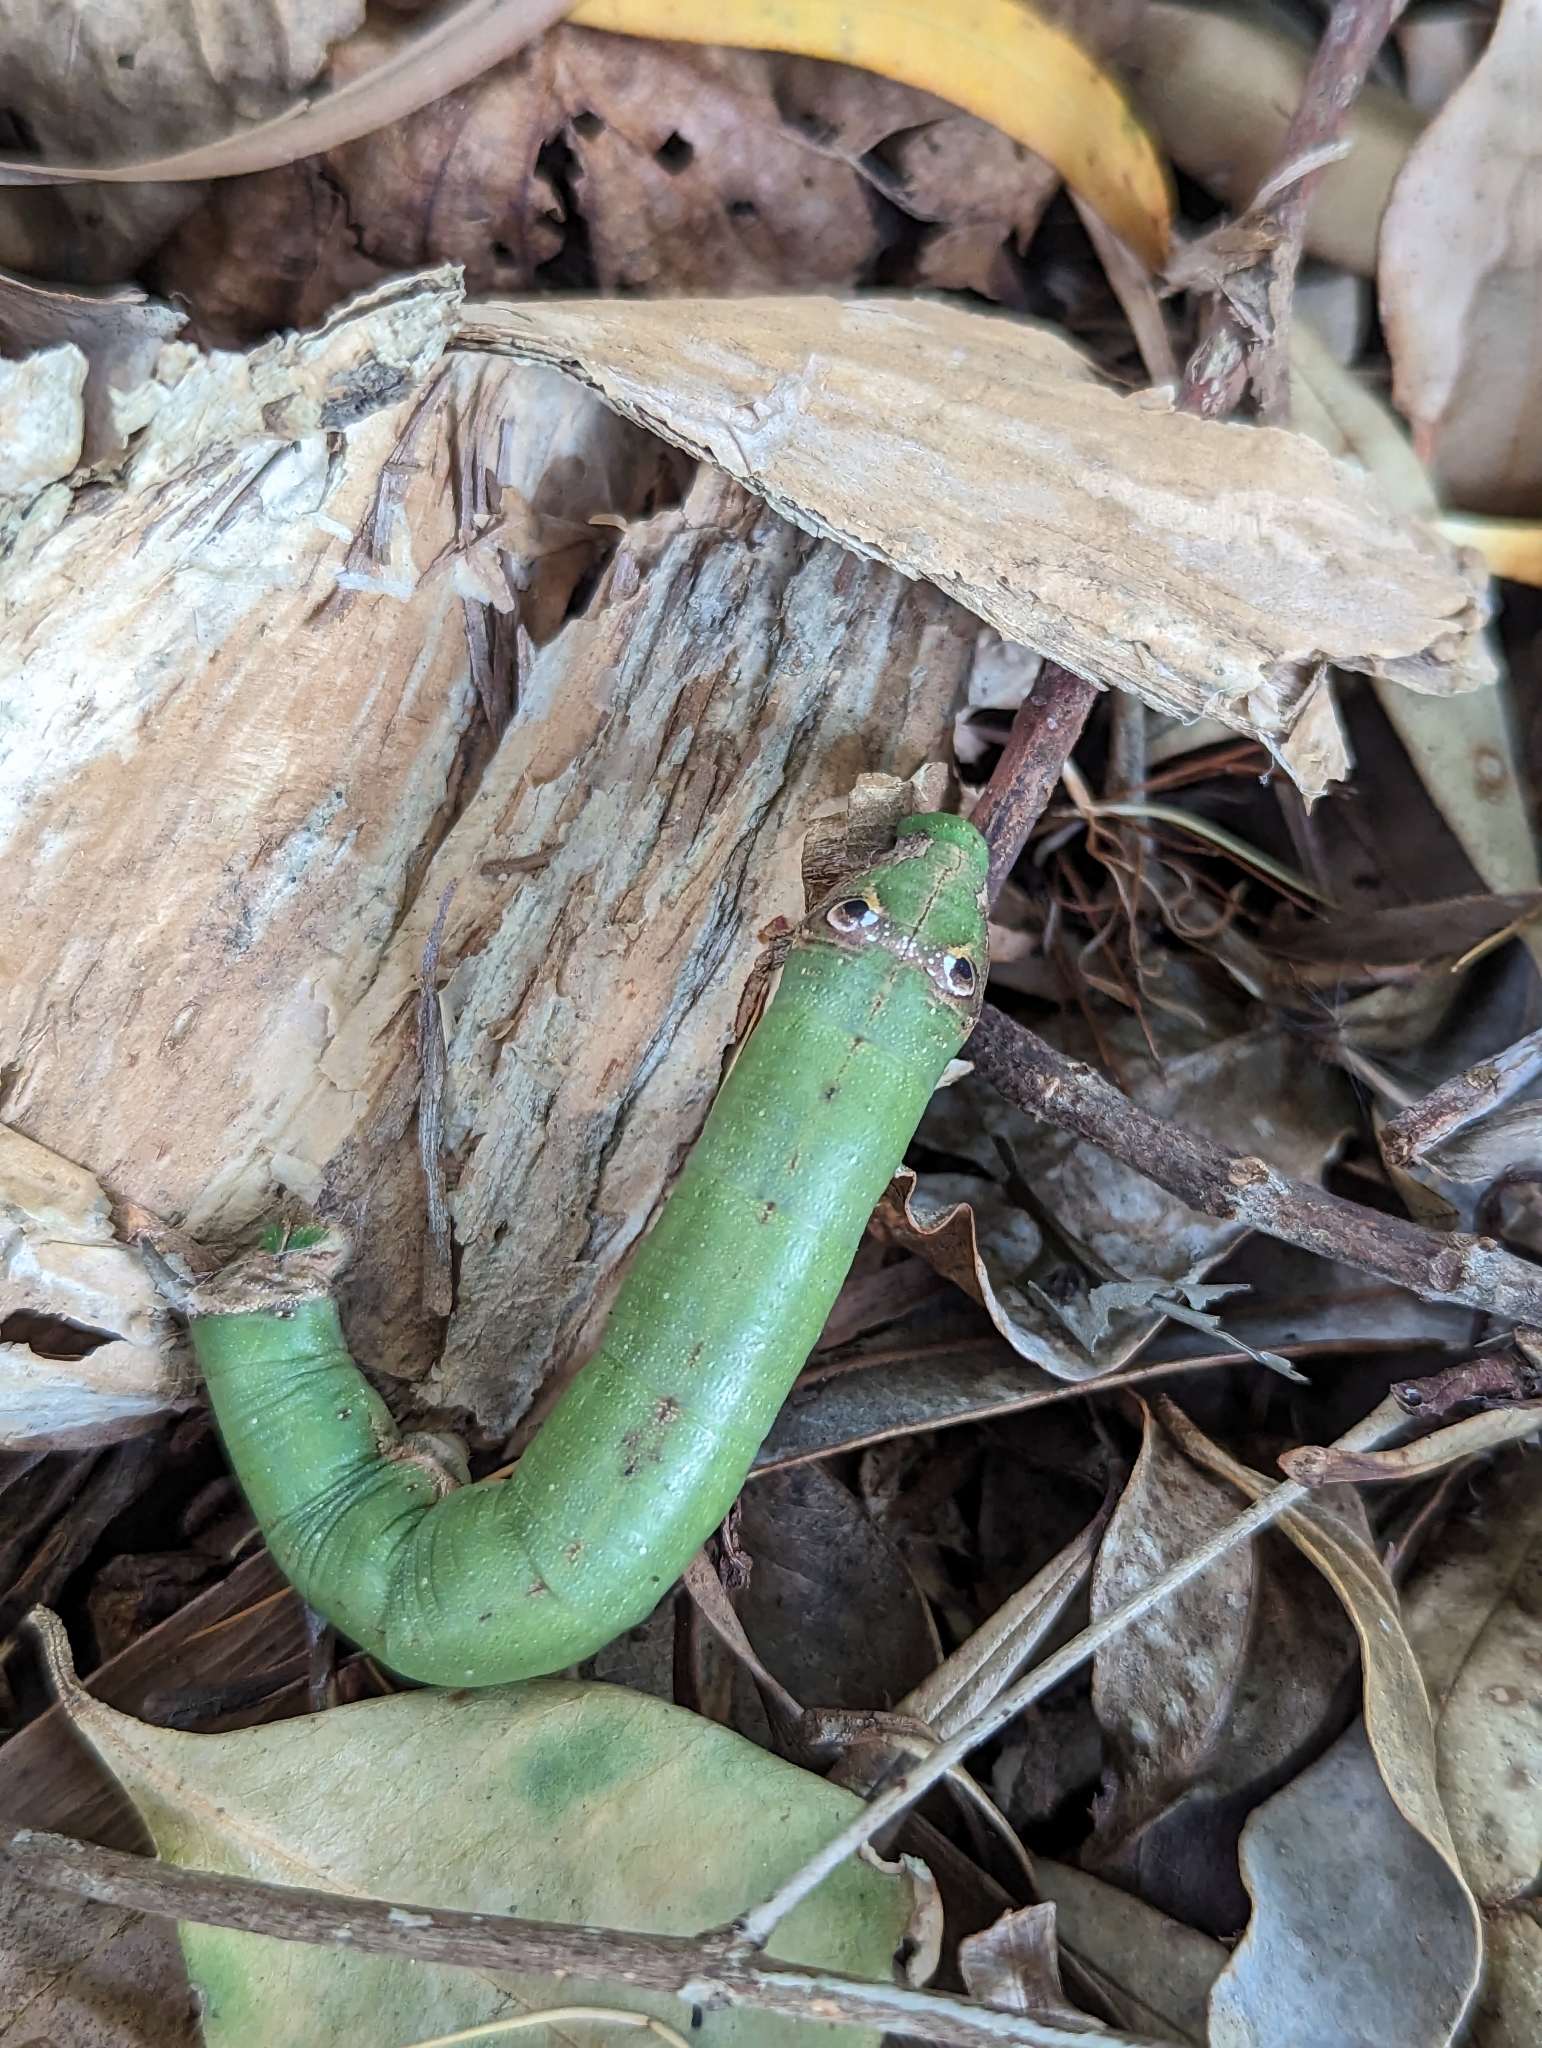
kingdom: Animalia
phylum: Arthropoda
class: Insecta
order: Lepidoptera
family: Sphingidae
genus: Eupanacra
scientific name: Eupanacra splendens
